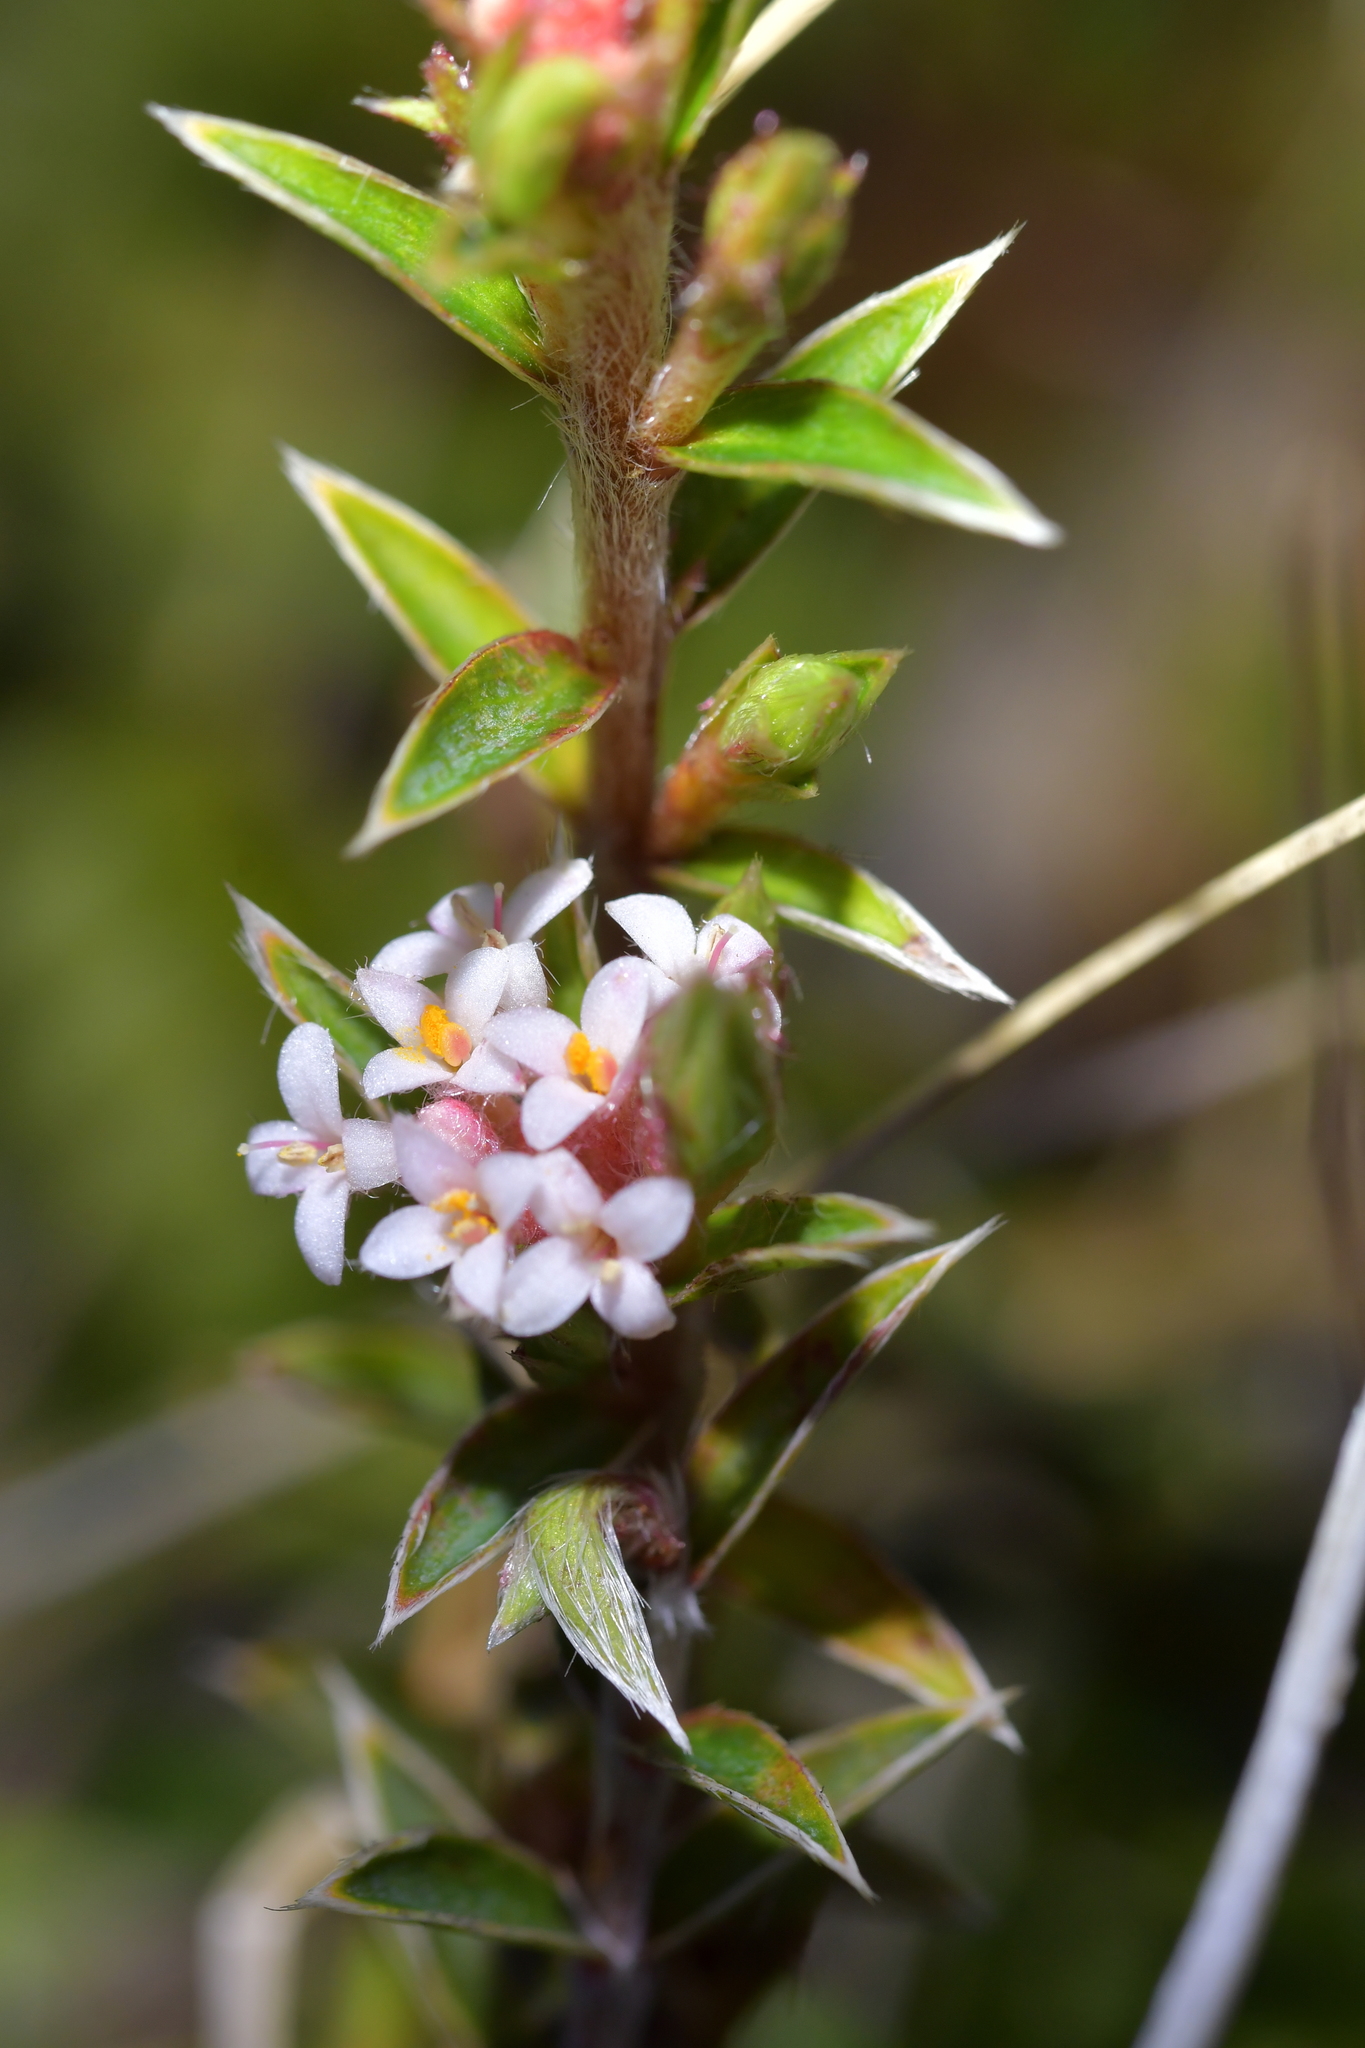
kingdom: Plantae
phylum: Tracheophyta
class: Magnoliopsida
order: Malvales
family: Thymelaeaceae
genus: Pimelea
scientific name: Pimelea pseudolyallii
